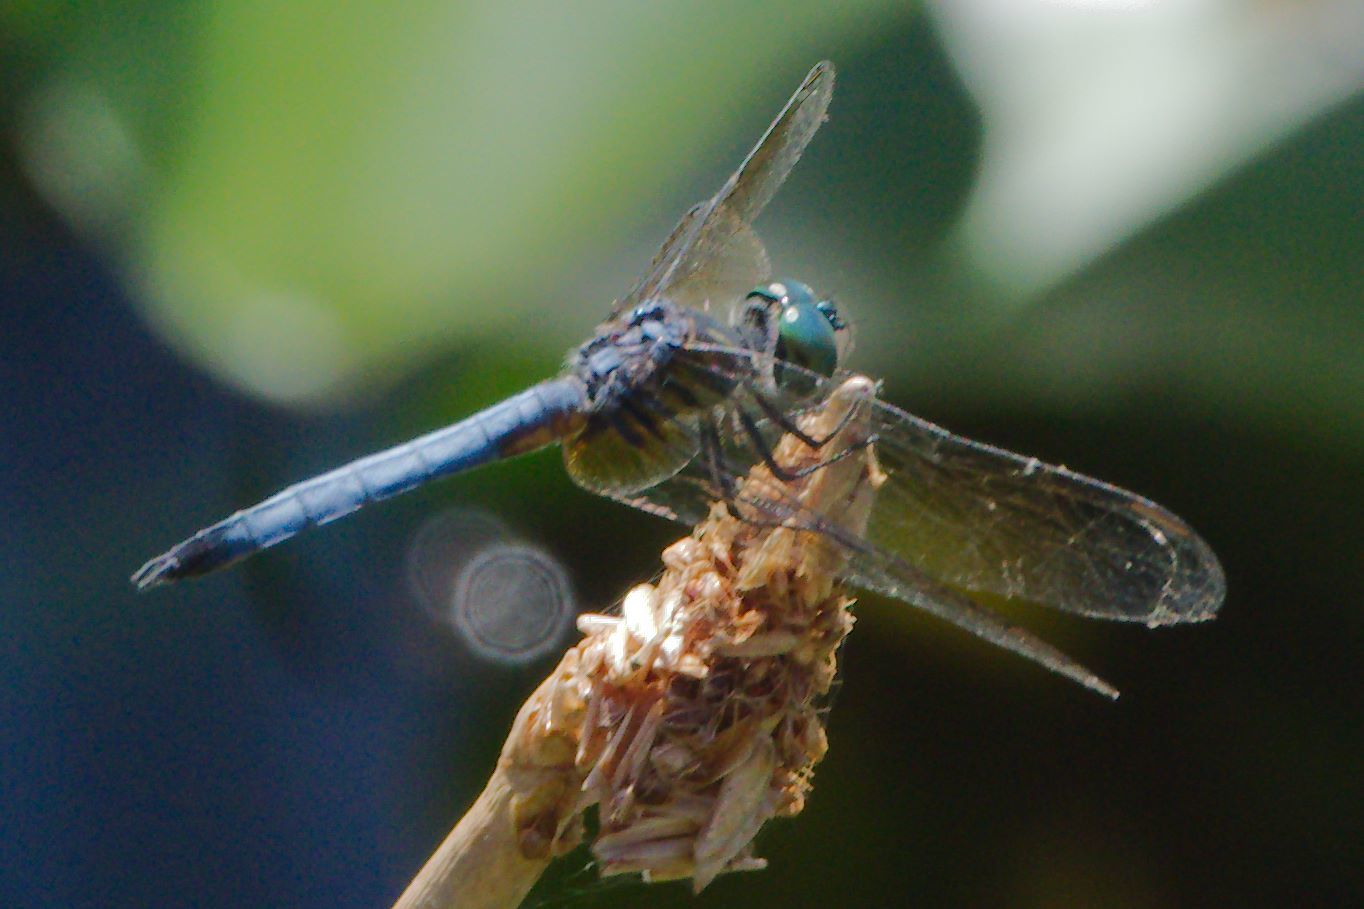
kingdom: Animalia
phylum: Arthropoda
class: Insecta
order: Odonata
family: Libellulidae
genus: Pachydiplax
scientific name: Pachydiplax longipennis
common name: Blue dasher
